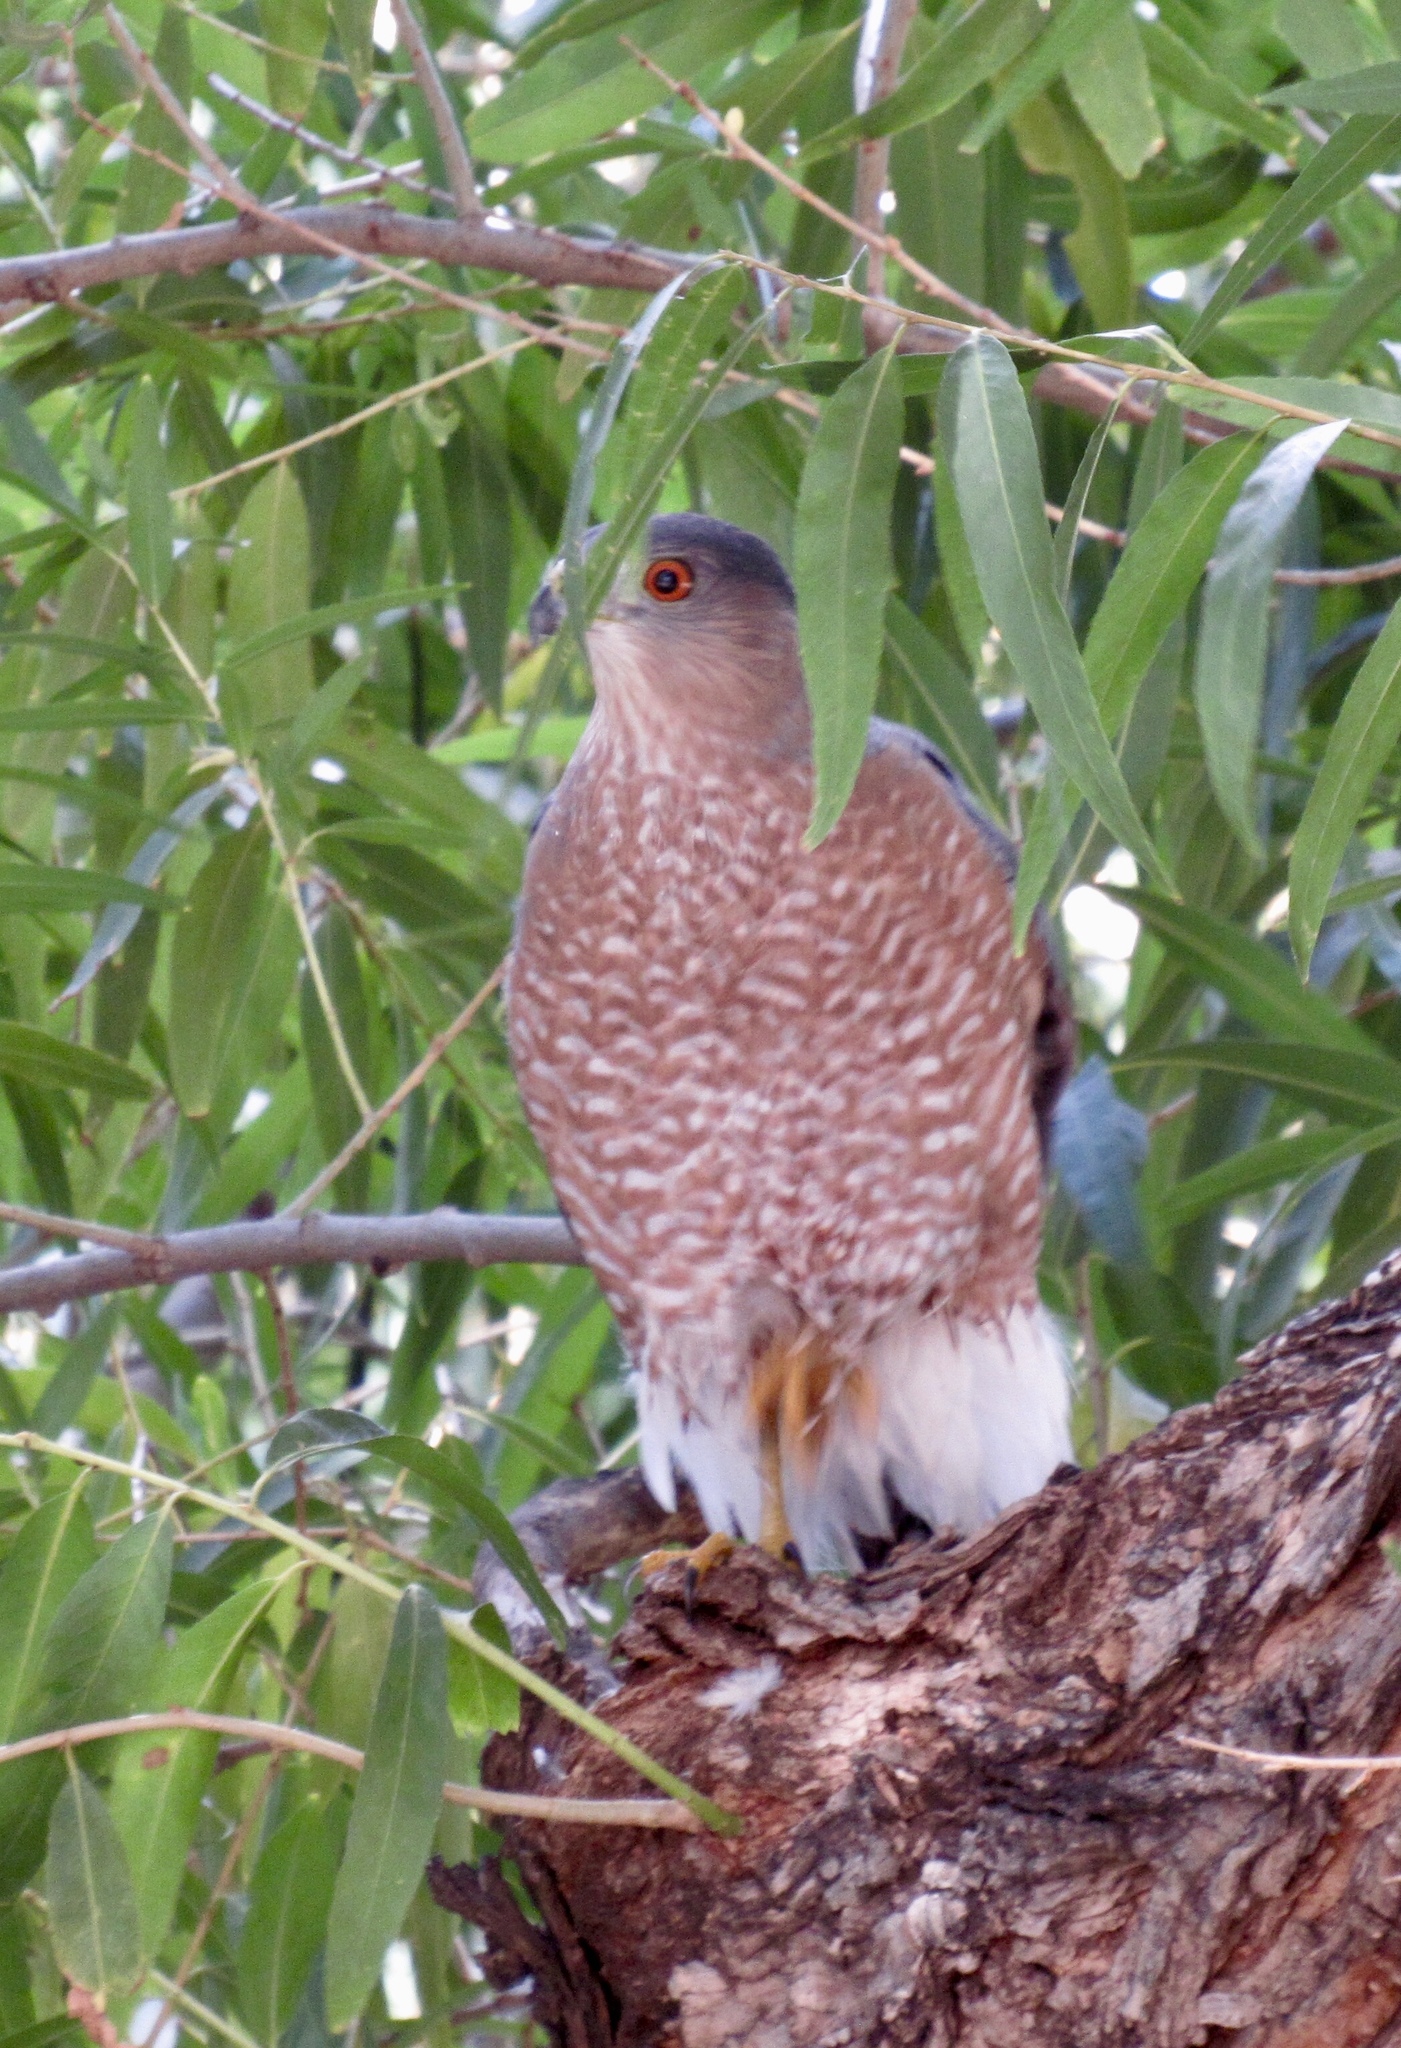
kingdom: Animalia
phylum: Chordata
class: Aves
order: Accipitriformes
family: Accipitridae
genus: Accipiter
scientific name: Accipiter cooperii
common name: Cooper's hawk
